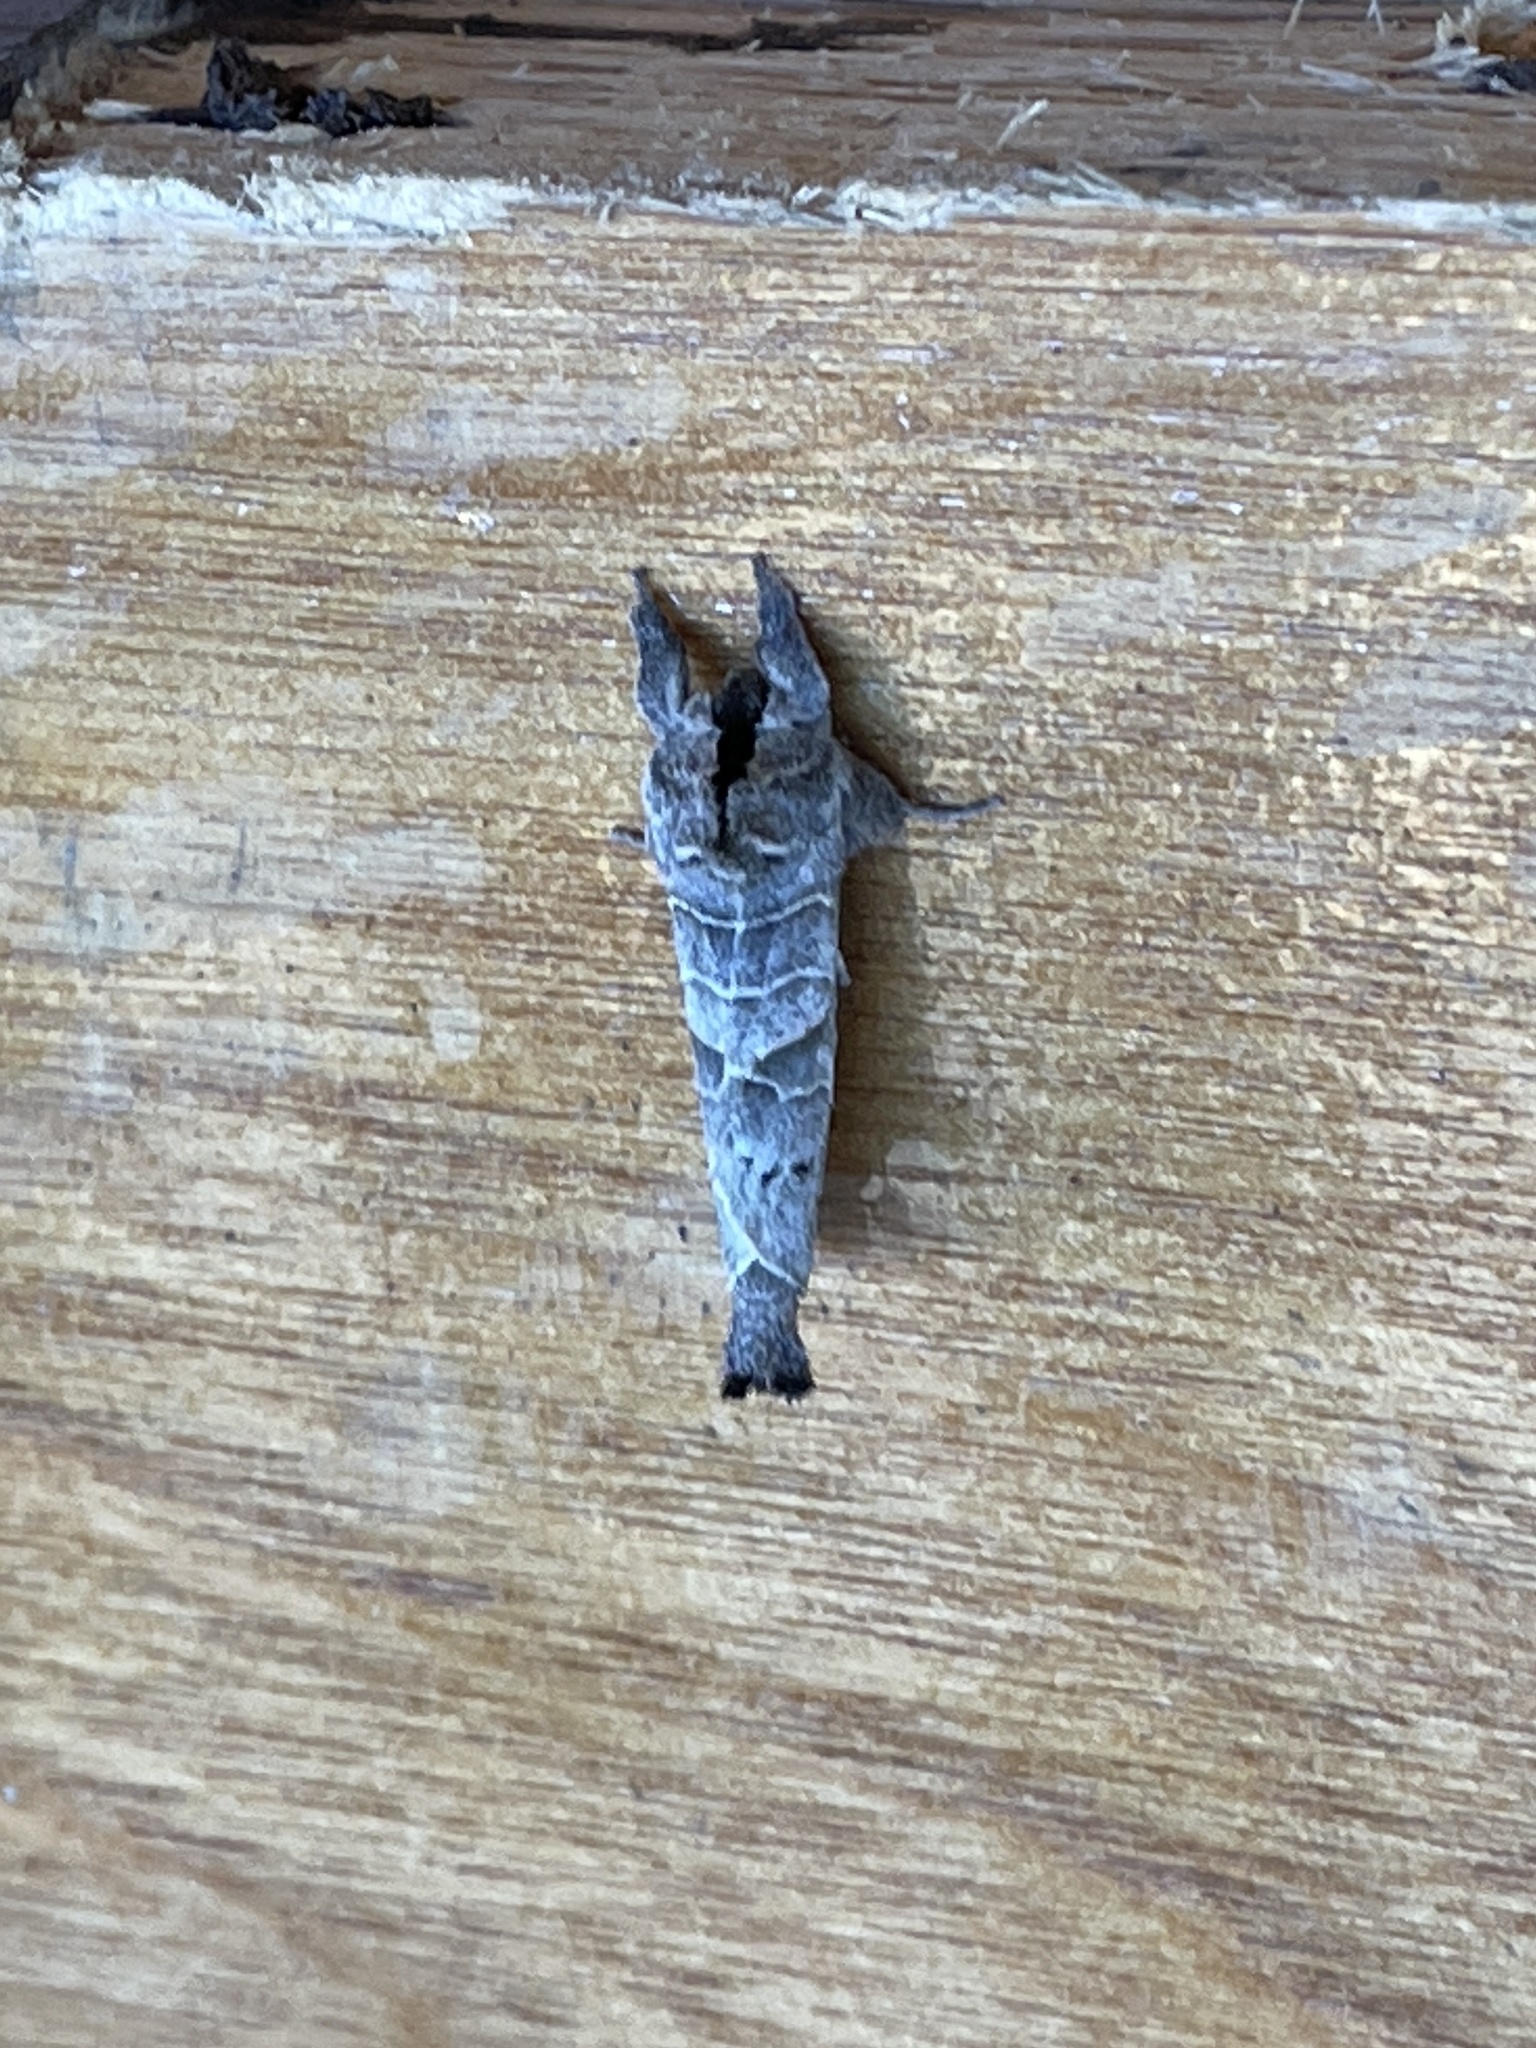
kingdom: Animalia
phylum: Arthropoda
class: Insecta
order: Lepidoptera
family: Notodontidae
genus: Clostera
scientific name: Clostera paraphora
